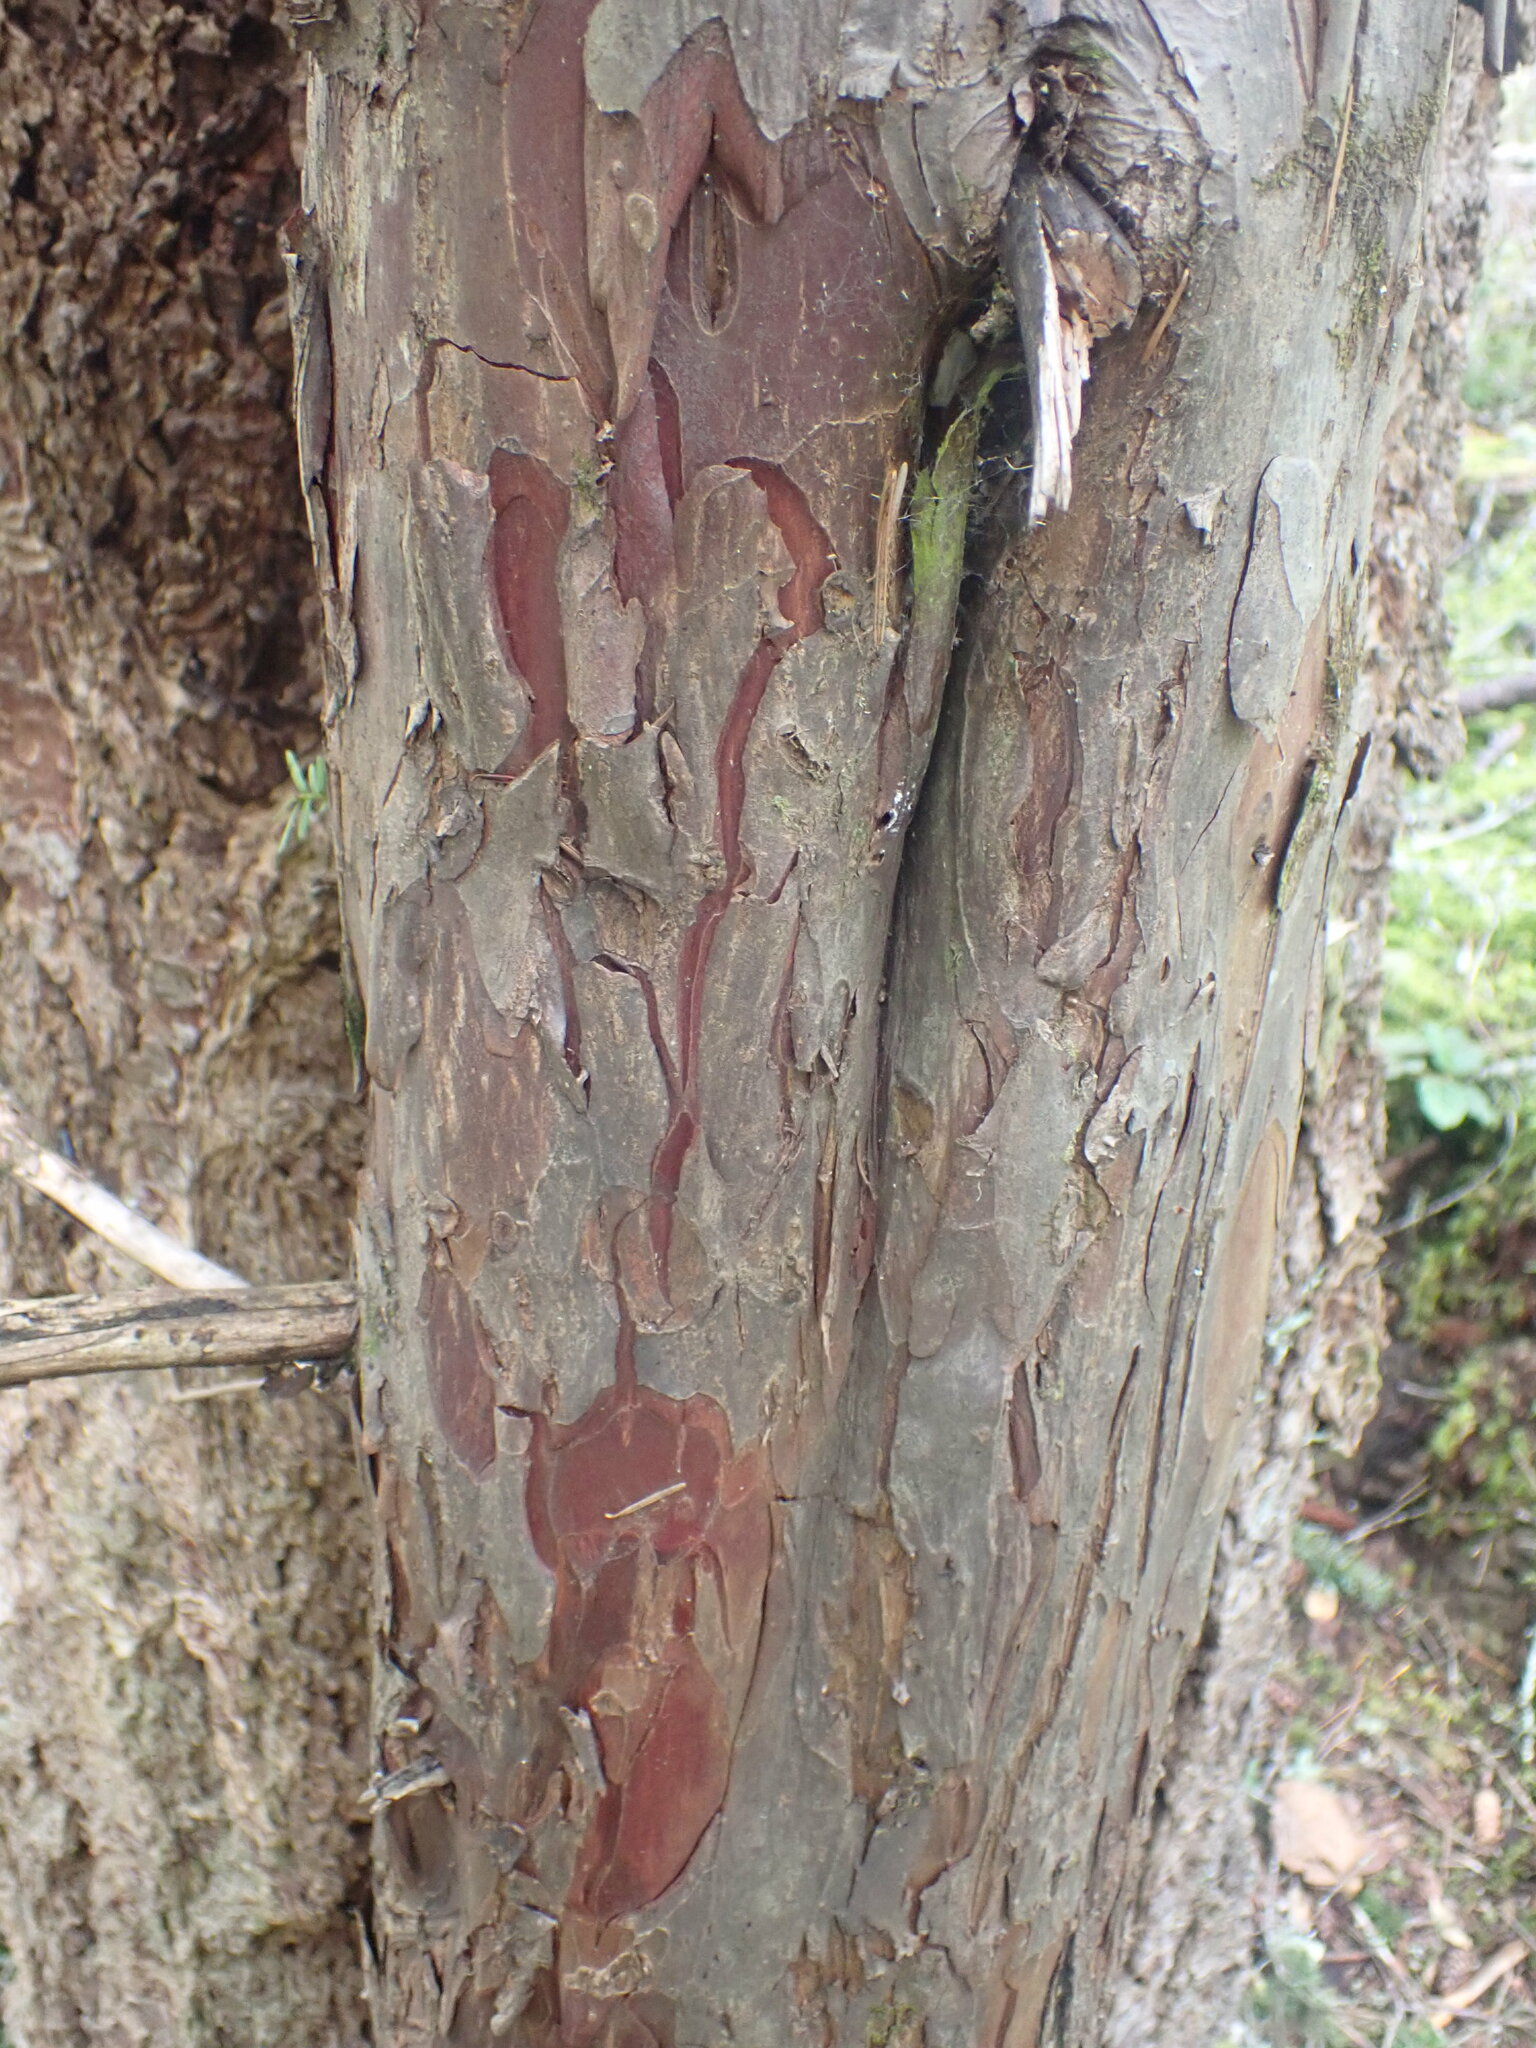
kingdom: Plantae
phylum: Tracheophyta
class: Pinopsida
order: Pinales
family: Taxaceae
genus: Taxus
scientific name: Taxus brevifolia
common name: Pacific yew
